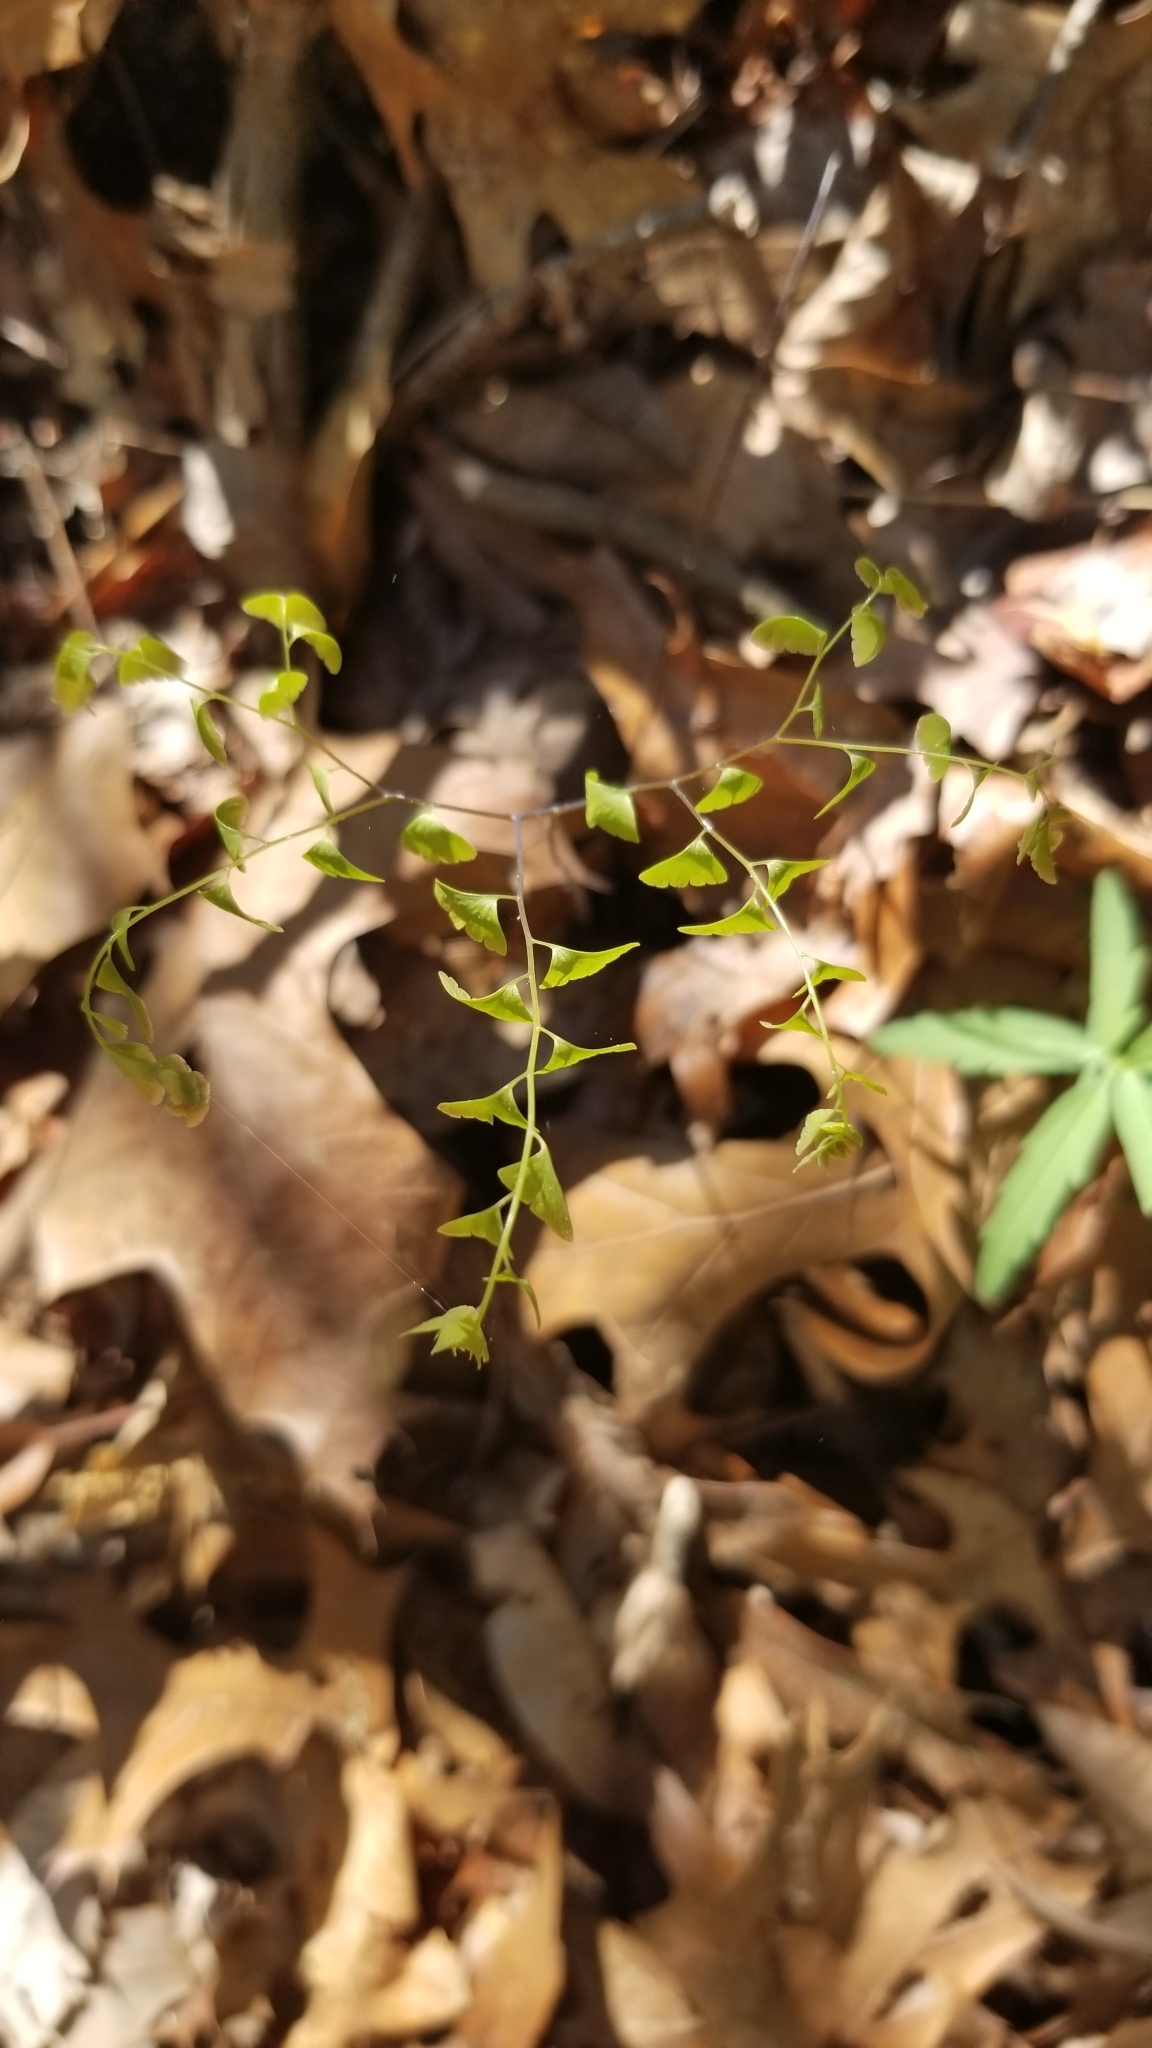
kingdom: Plantae
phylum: Tracheophyta
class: Polypodiopsida
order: Polypodiales
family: Pteridaceae
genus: Adiantum
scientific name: Adiantum pedatum
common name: Five-finger fern
